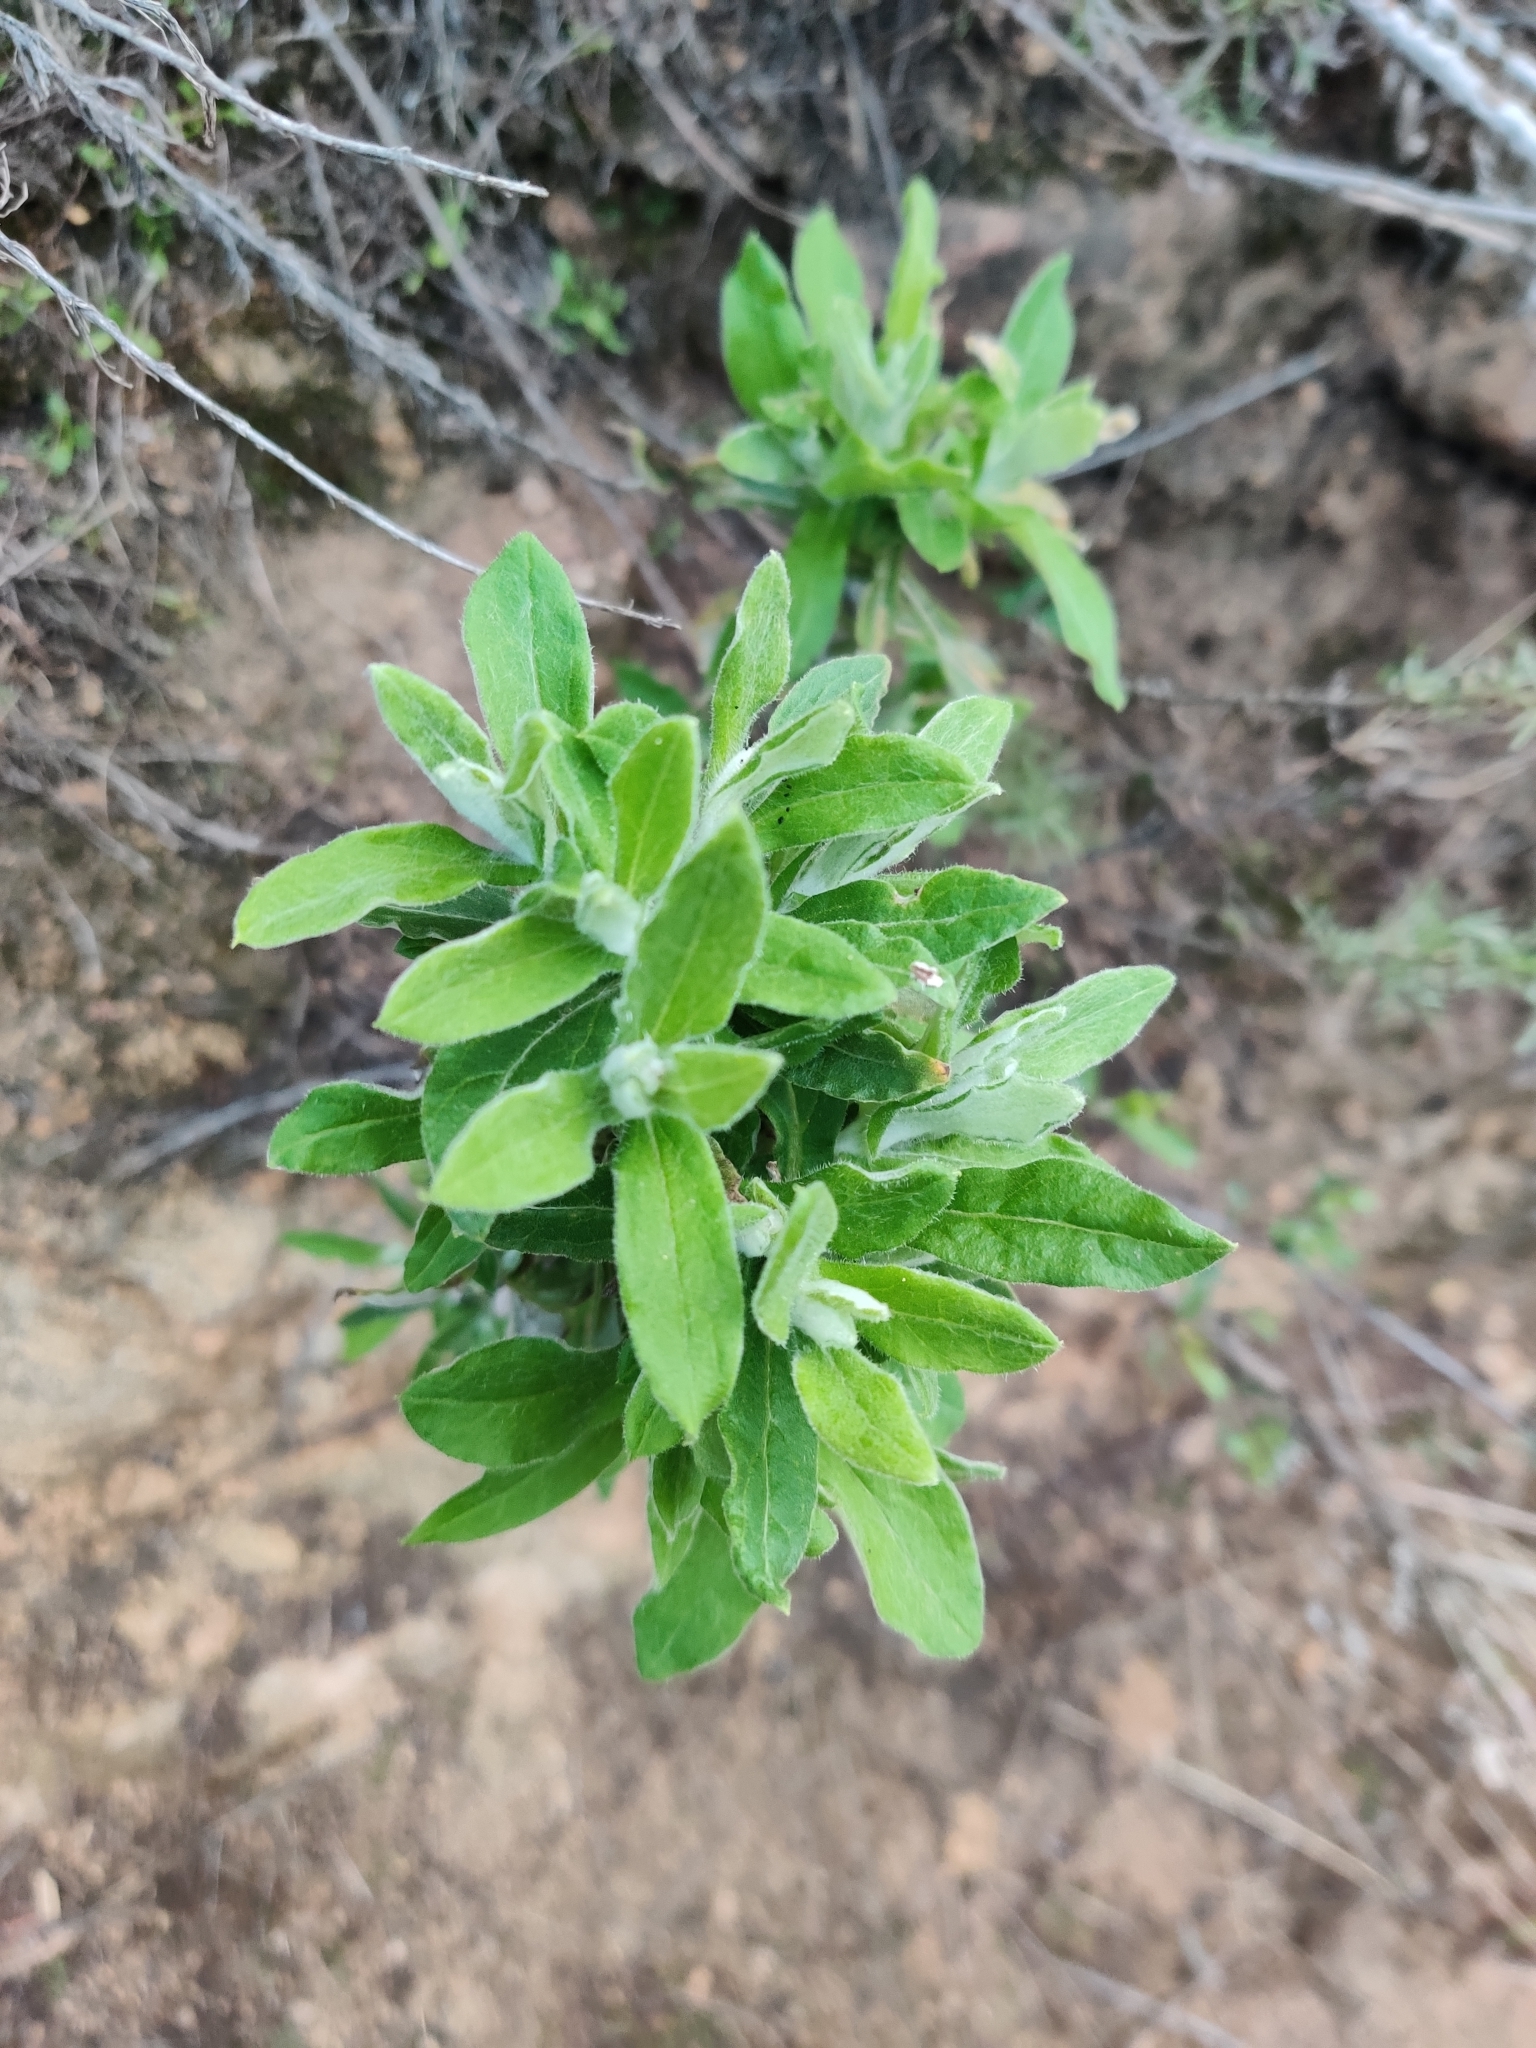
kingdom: Plantae
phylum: Tracheophyta
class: Magnoliopsida
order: Asterales
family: Asteraceae
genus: Pseudognaphalium
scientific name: Pseudognaphalium biolettii
